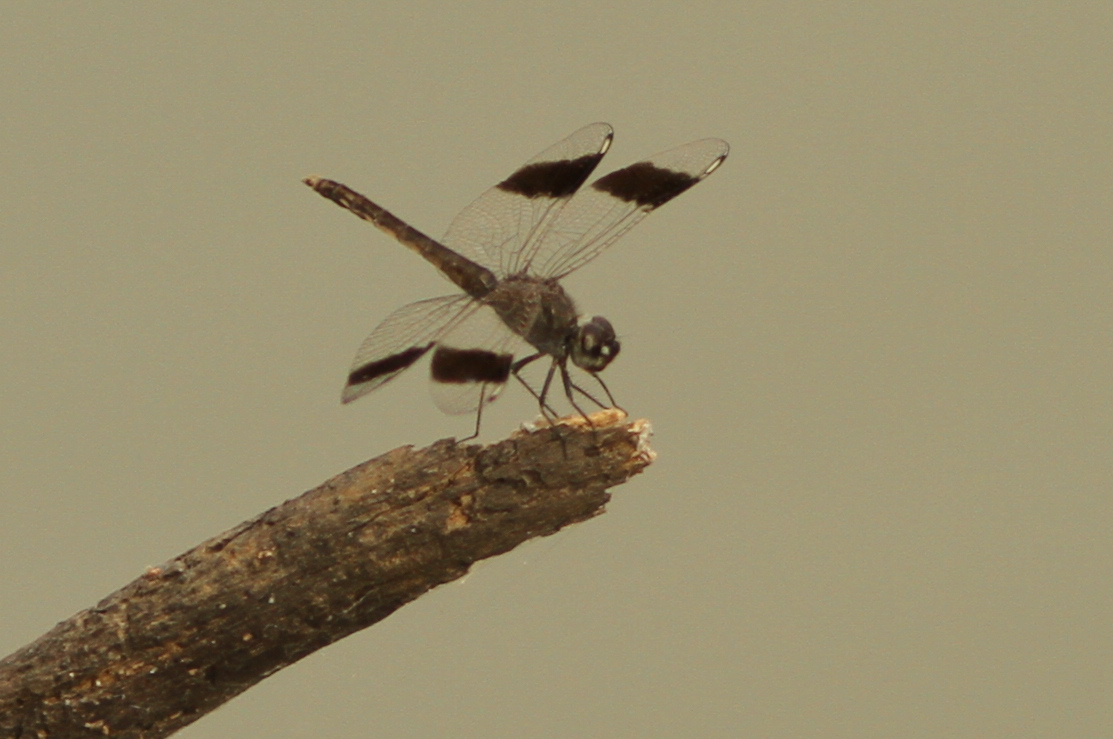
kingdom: Animalia
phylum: Arthropoda
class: Insecta
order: Odonata
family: Libellulidae
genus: Brachythemis
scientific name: Brachythemis leucosticta
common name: Banded groundling
